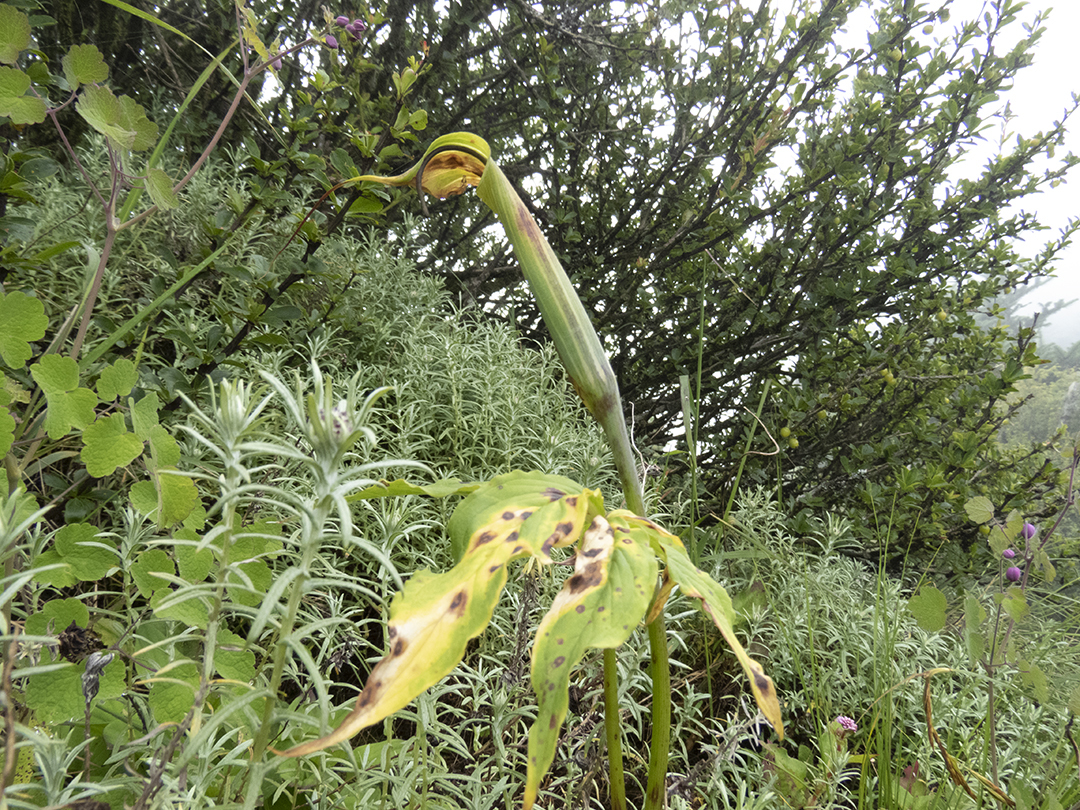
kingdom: Plantae
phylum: Tracheophyta
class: Liliopsida
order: Alismatales
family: Araceae
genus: Arisaema
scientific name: Arisaema jacquemontii
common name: Jacquemont's cobra-lily
